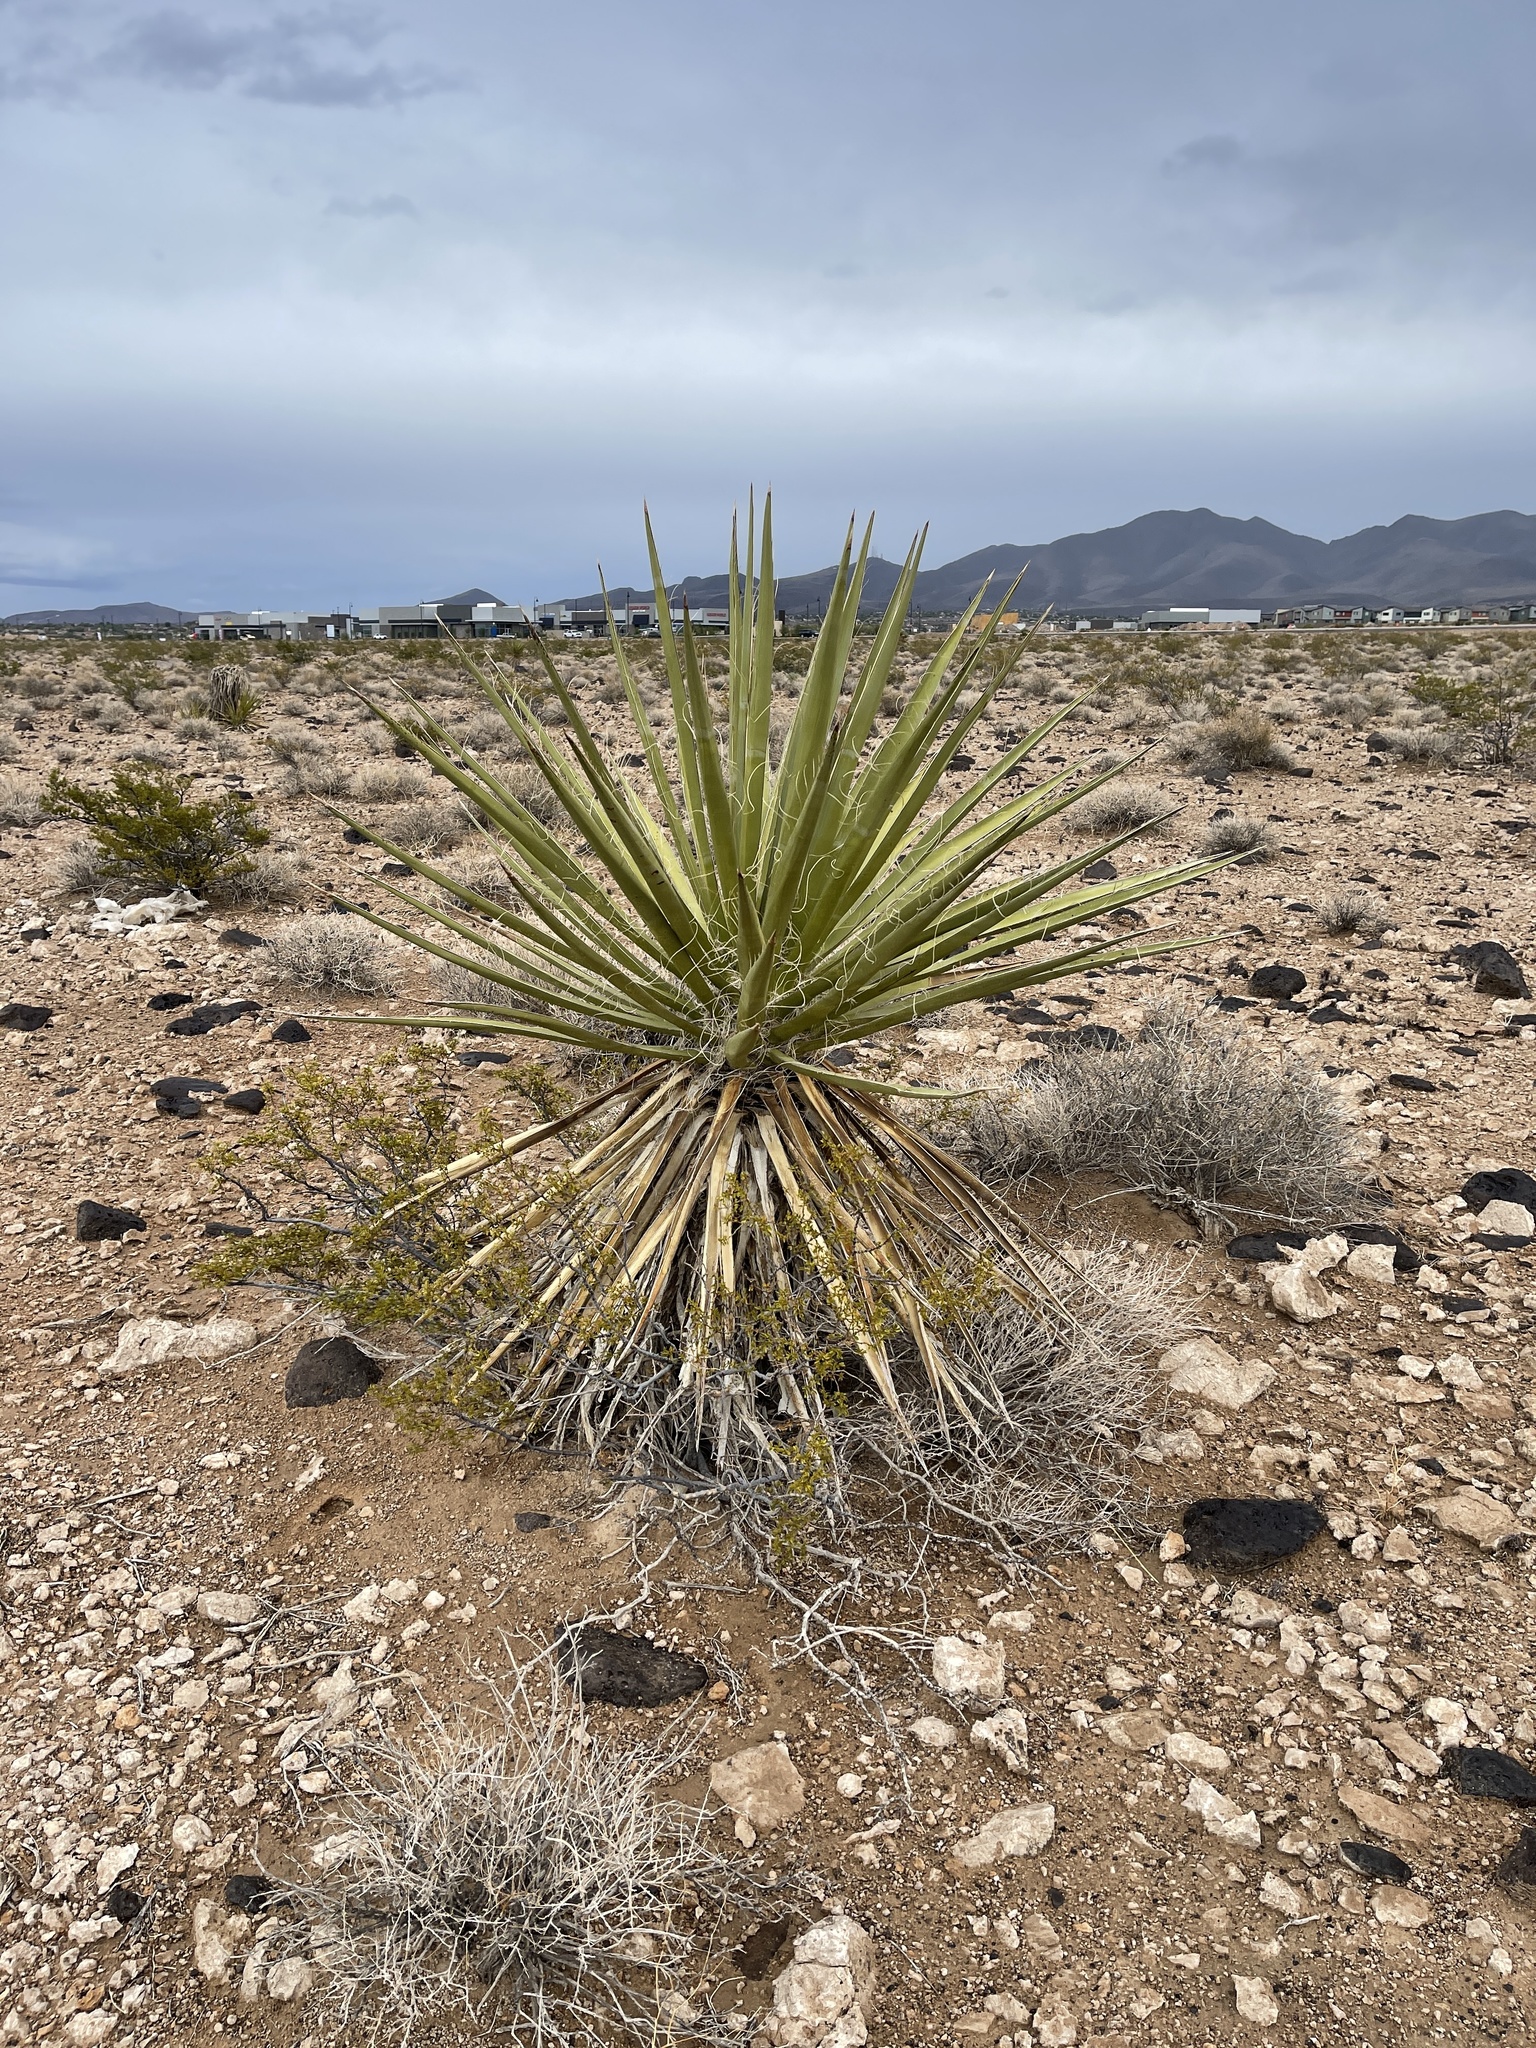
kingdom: Plantae
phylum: Tracheophyta
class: Liliopsida
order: Asparagales
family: Asparagaceae
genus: Yucca
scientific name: Yucca schidigera
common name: Mojave yucca
